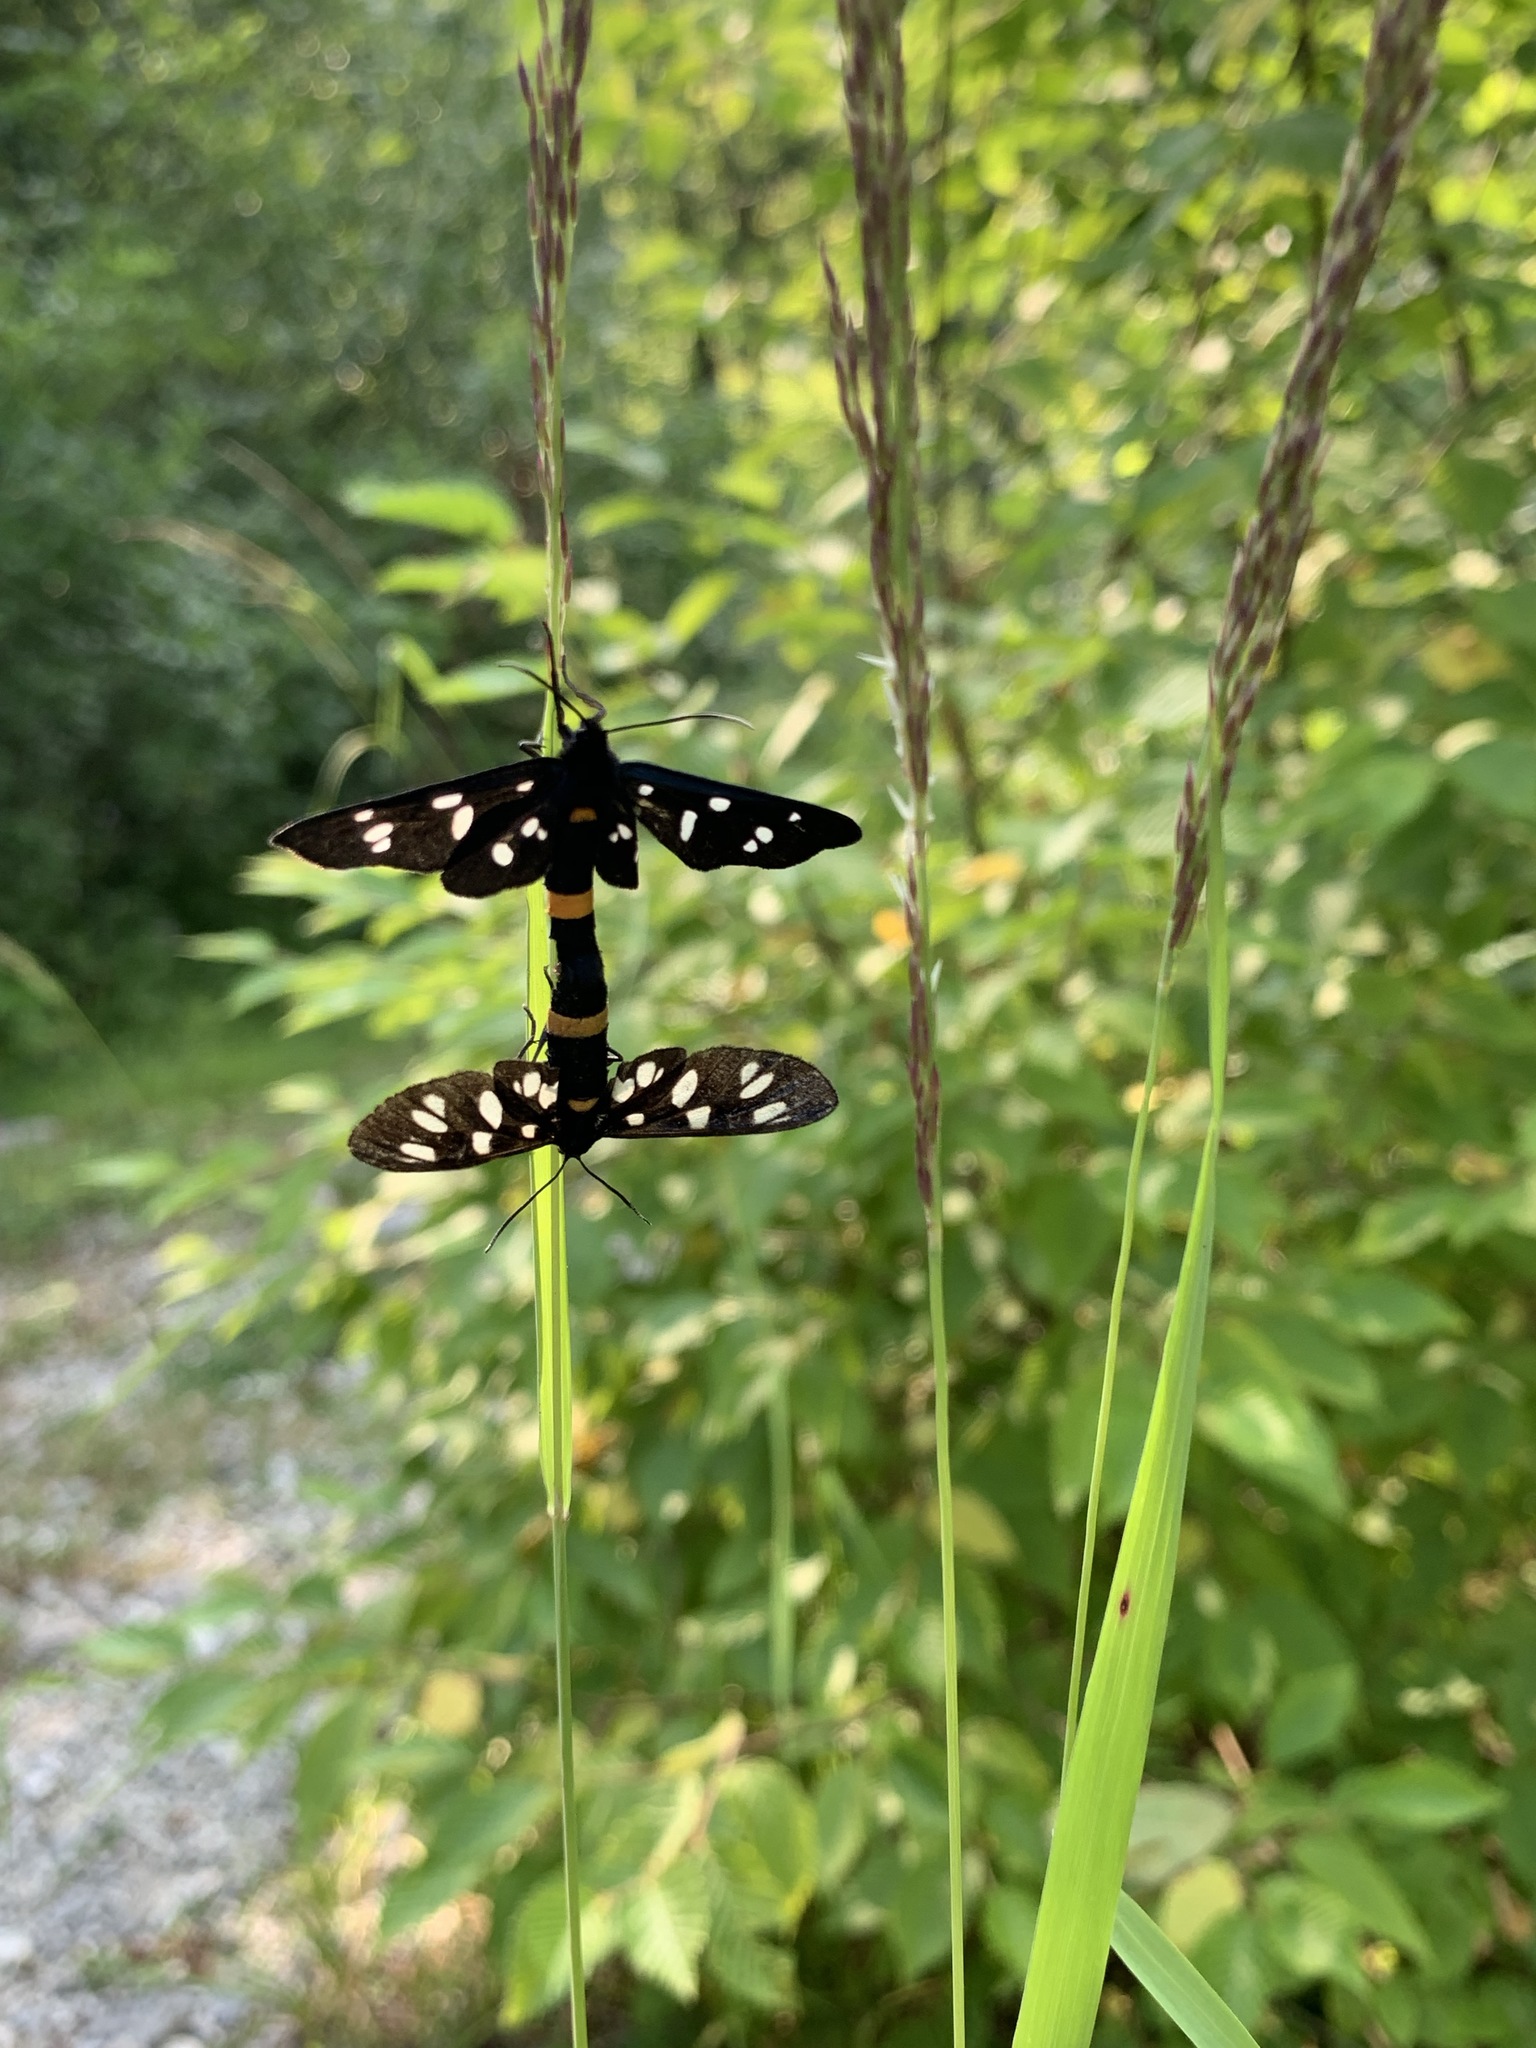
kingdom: Animalia
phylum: Arthropoda
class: Insecta
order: Lepidoptera
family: Erebidae
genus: Amata
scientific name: Amata phegea
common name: Nine-spotted
